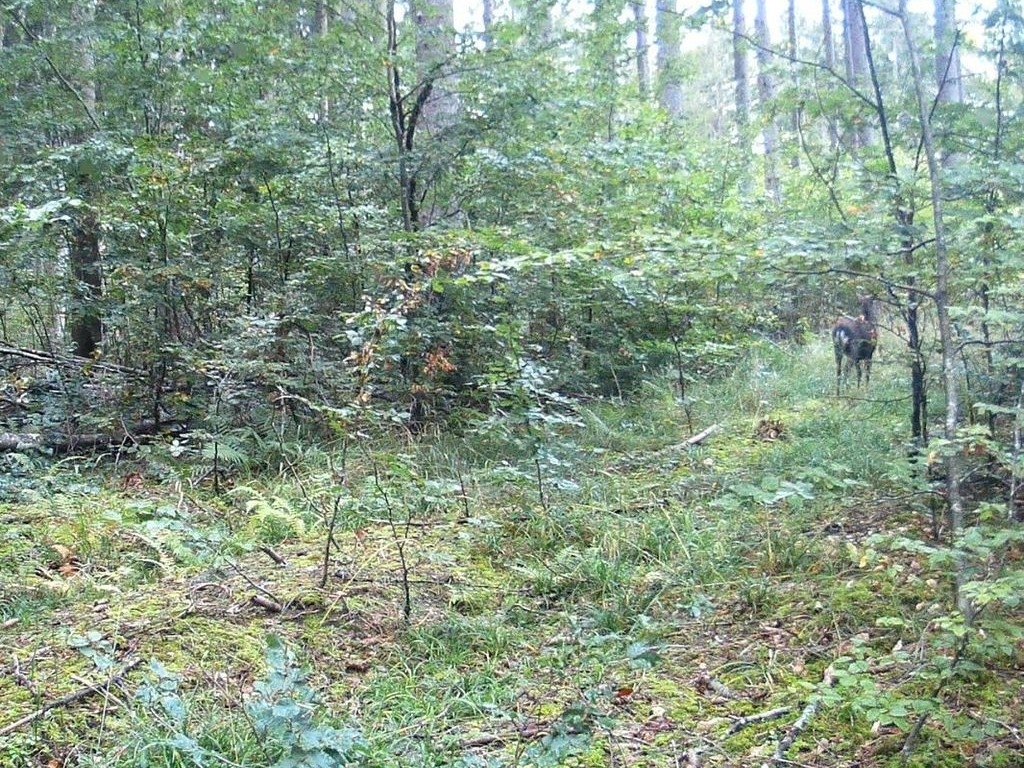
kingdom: Animalia
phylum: Chordata
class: Mammalia
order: Artiodactyla
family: Cervidae
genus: Dama
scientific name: Dama dama
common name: Fallow deer
